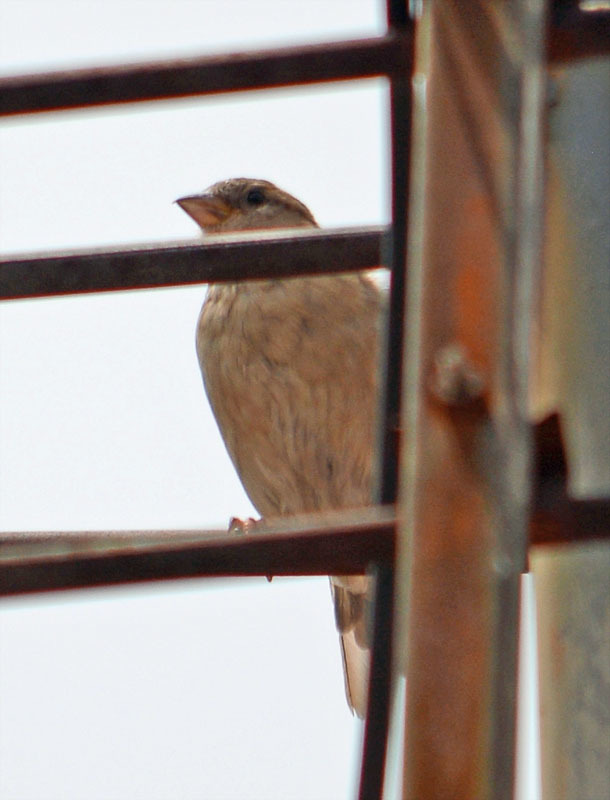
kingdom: Animalia
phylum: Chordata
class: Aves
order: Passeriformes
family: Passeridae
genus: Passer
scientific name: Passer domesticus
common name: House sparrow
